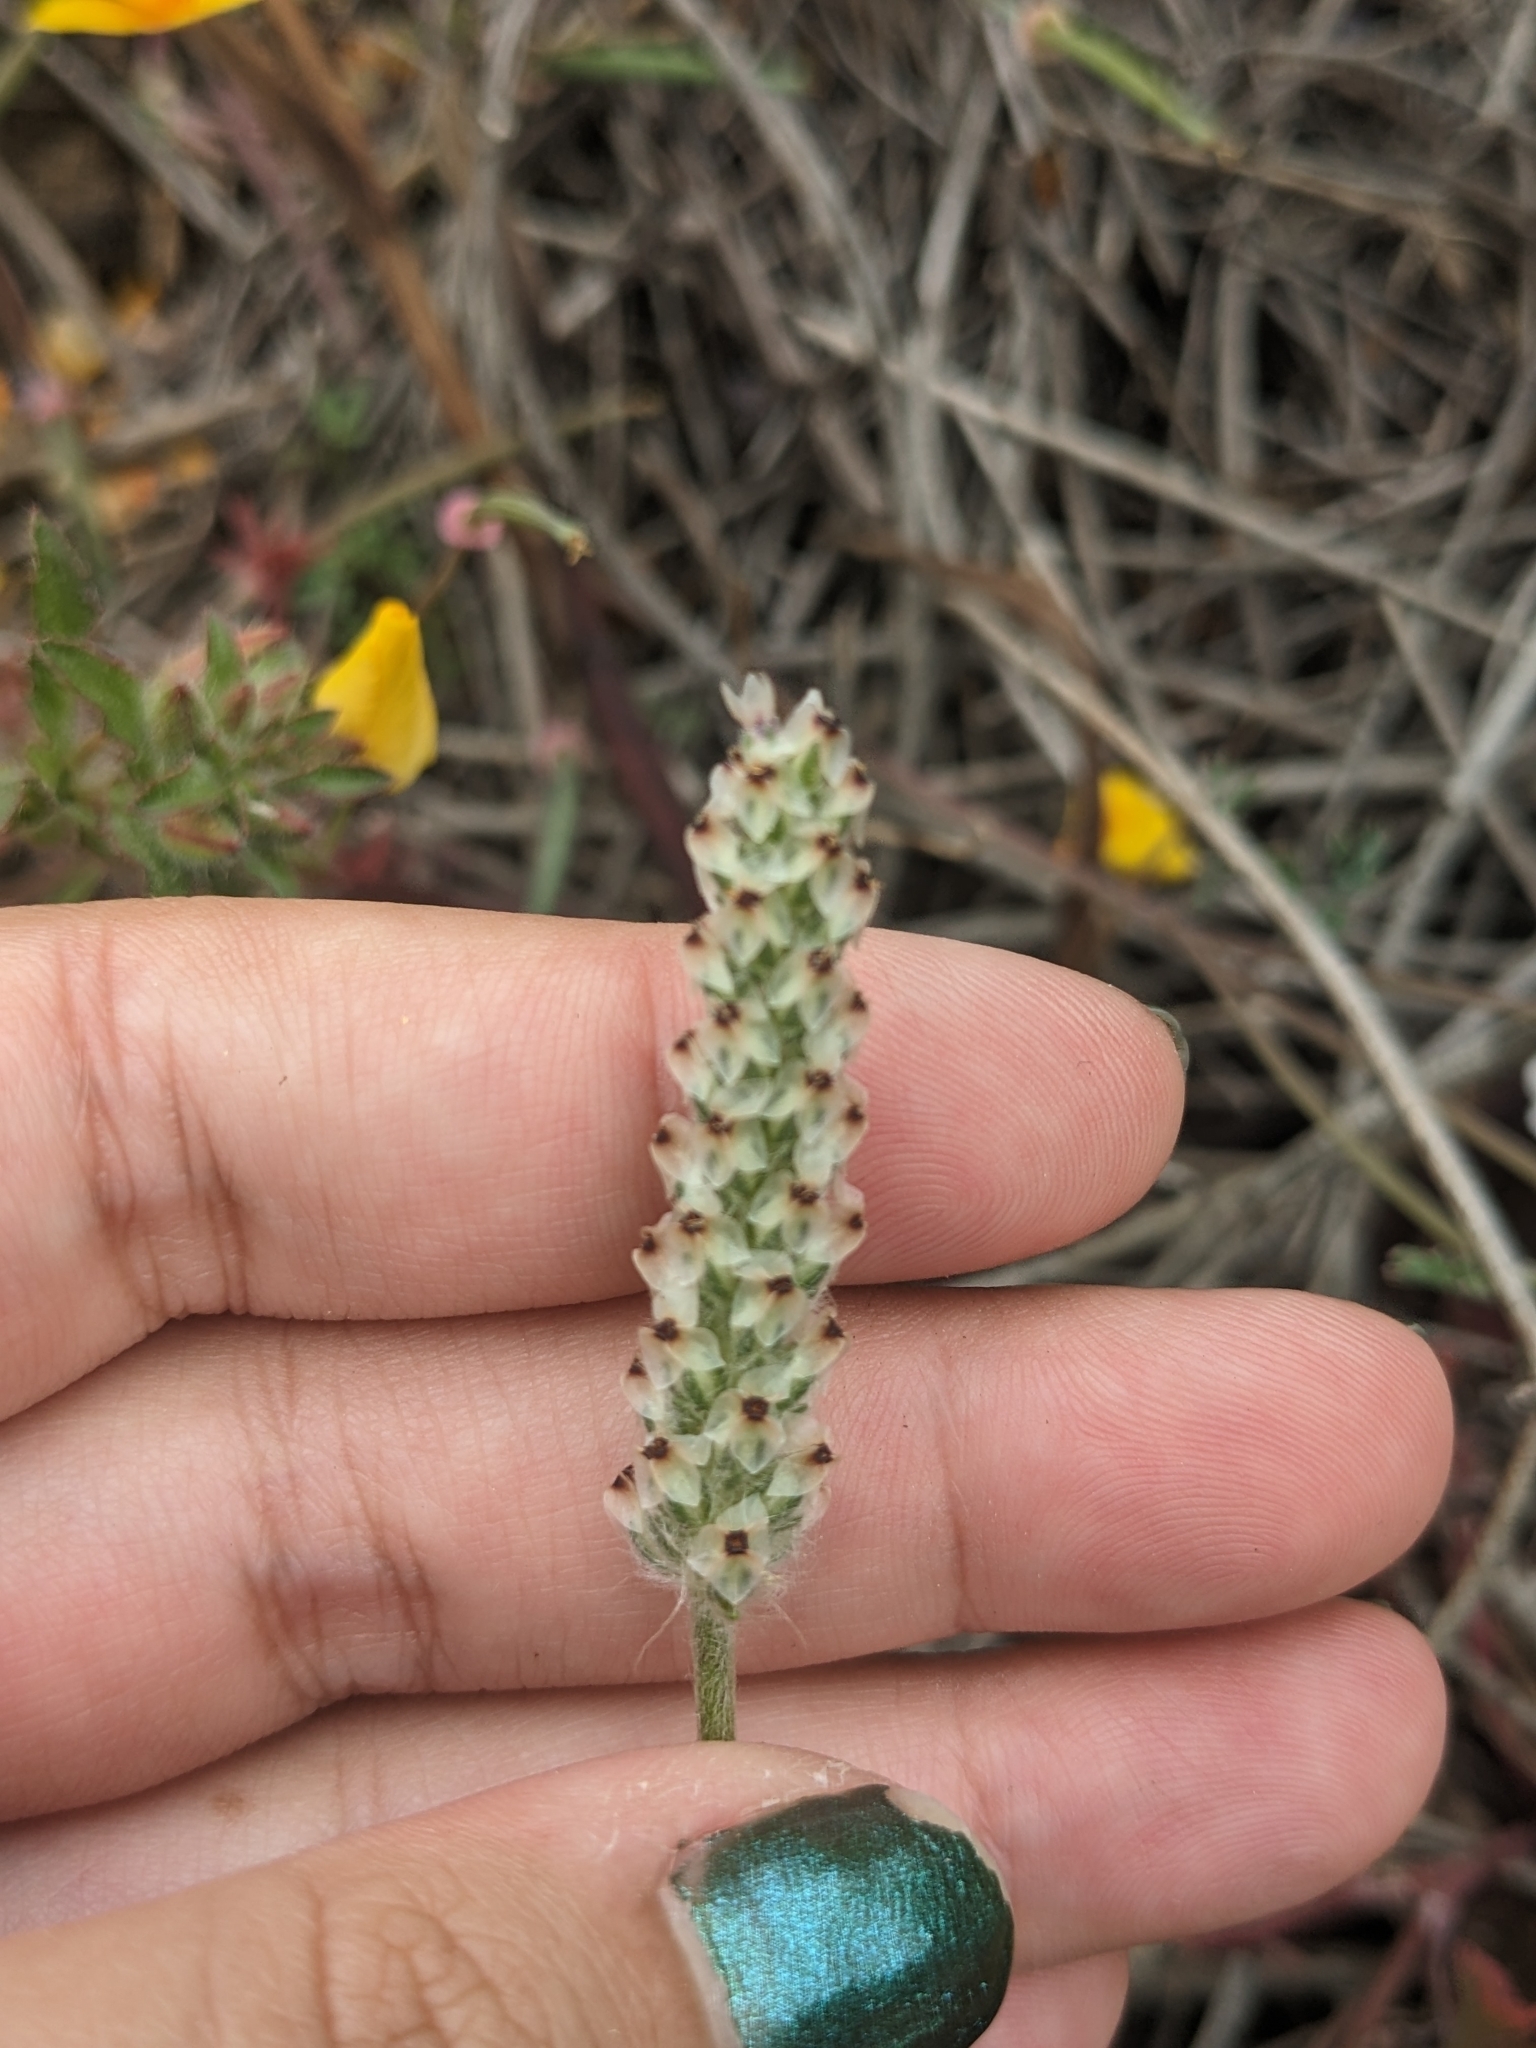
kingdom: Plantae
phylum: Tracheophyta
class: Magnoliopsida
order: Lamiales
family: Plantaginaceae
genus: Plantago
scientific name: Plantago erecta
